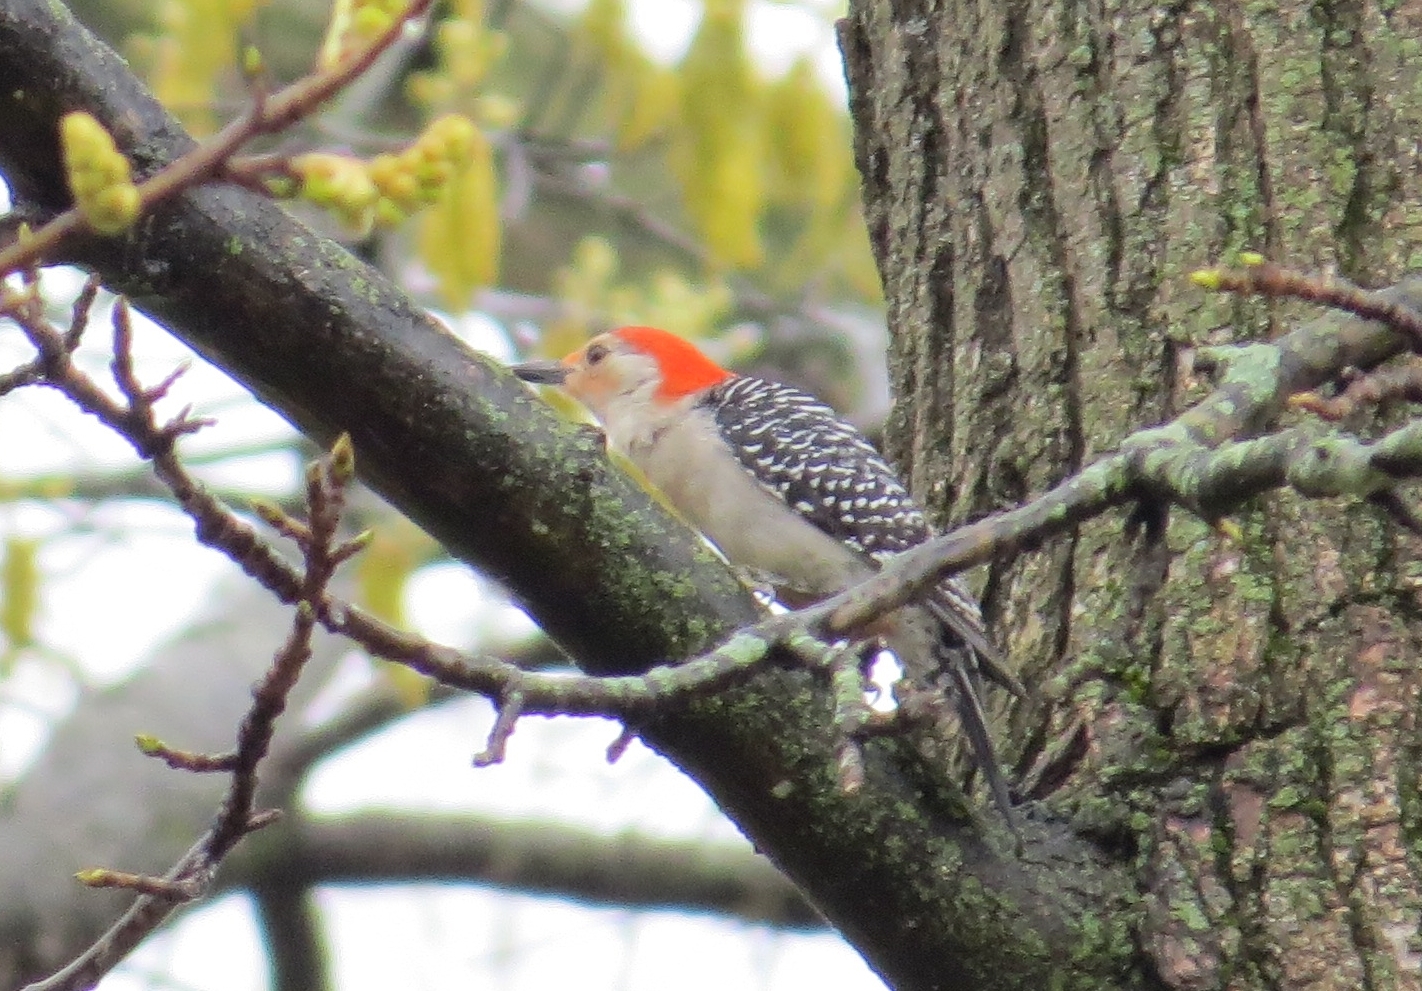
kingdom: Animalia
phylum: Chordata
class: Aves
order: Piciformes
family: Picidae
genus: Melanerpes
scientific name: Melanerpes carolinus
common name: Red-bellied woodpecker
